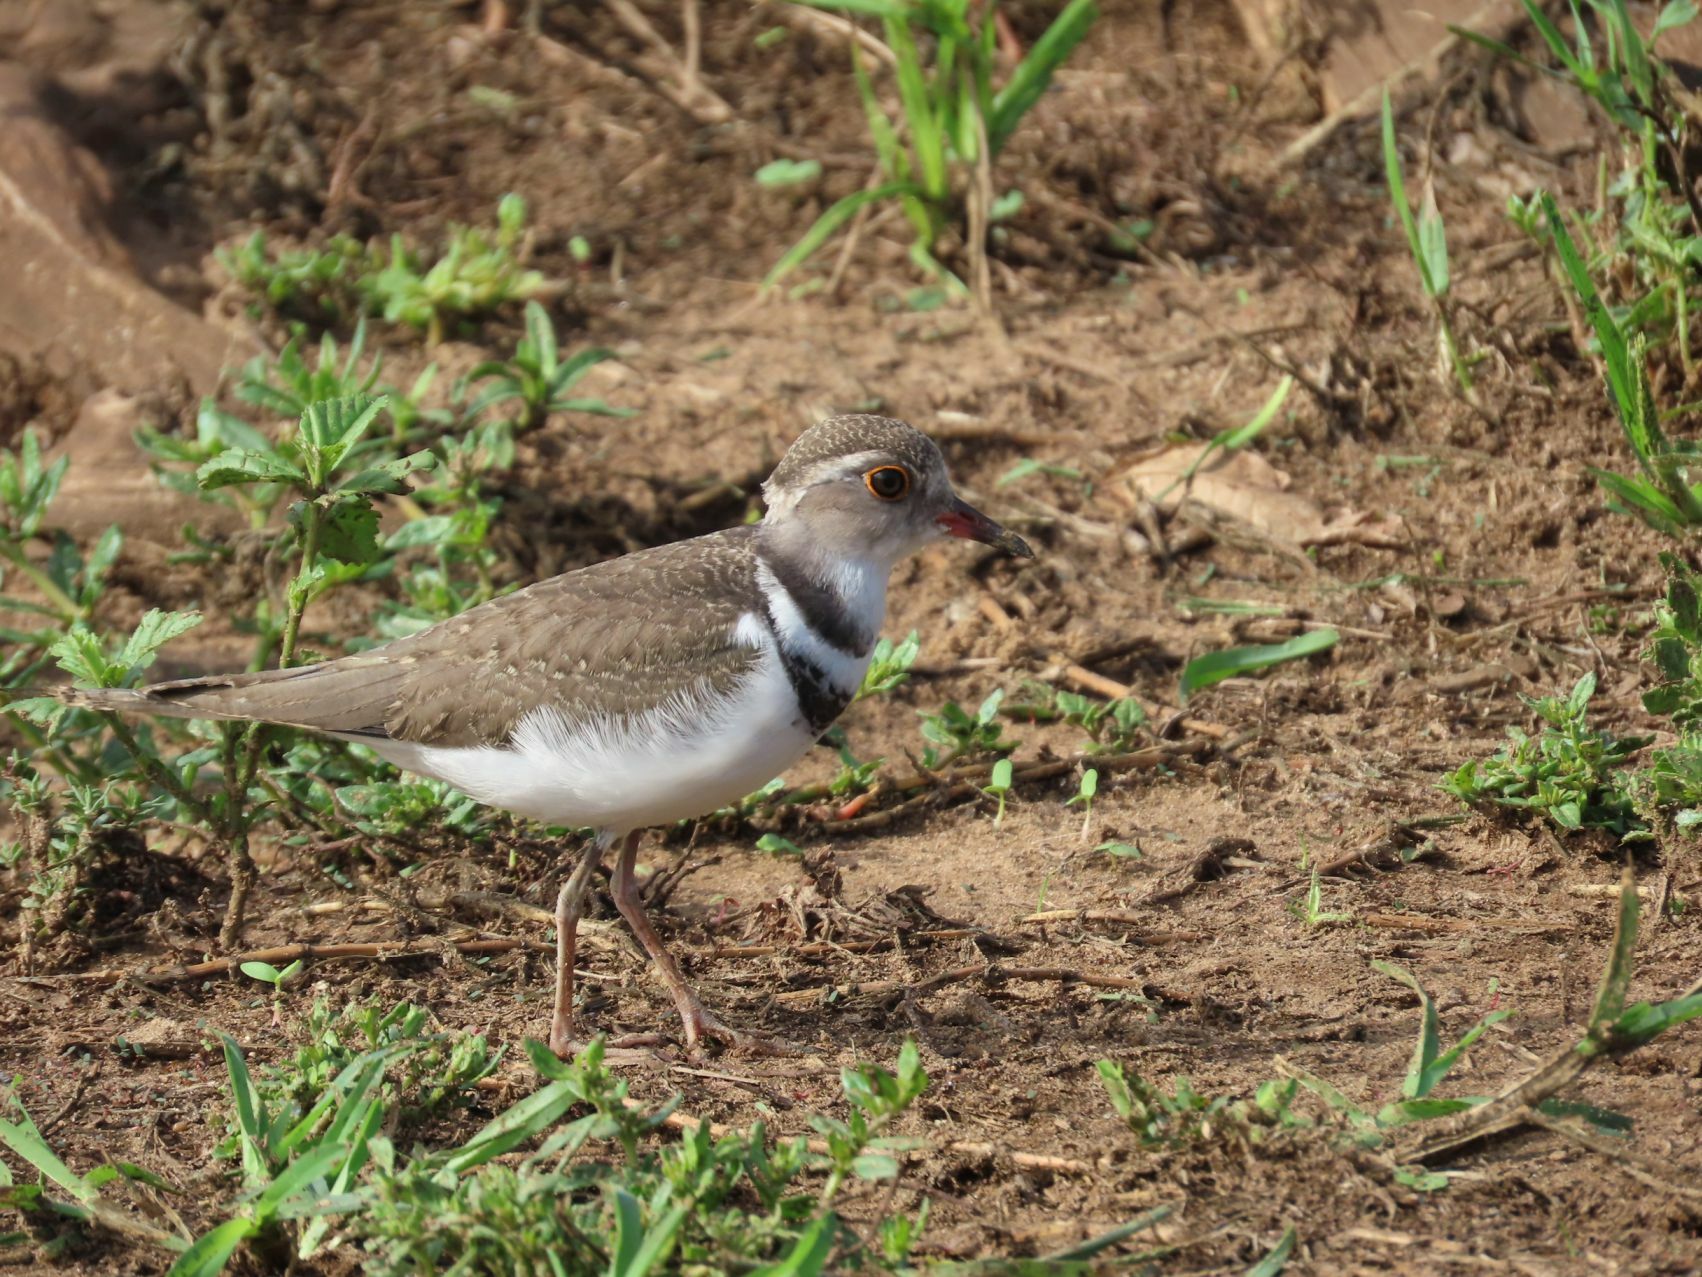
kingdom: Animalia
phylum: Chordata
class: Aves
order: Charadriiformes
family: Charadriidae
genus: Charadrius
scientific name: Charadrius tricollaris
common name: Three-banded plover
